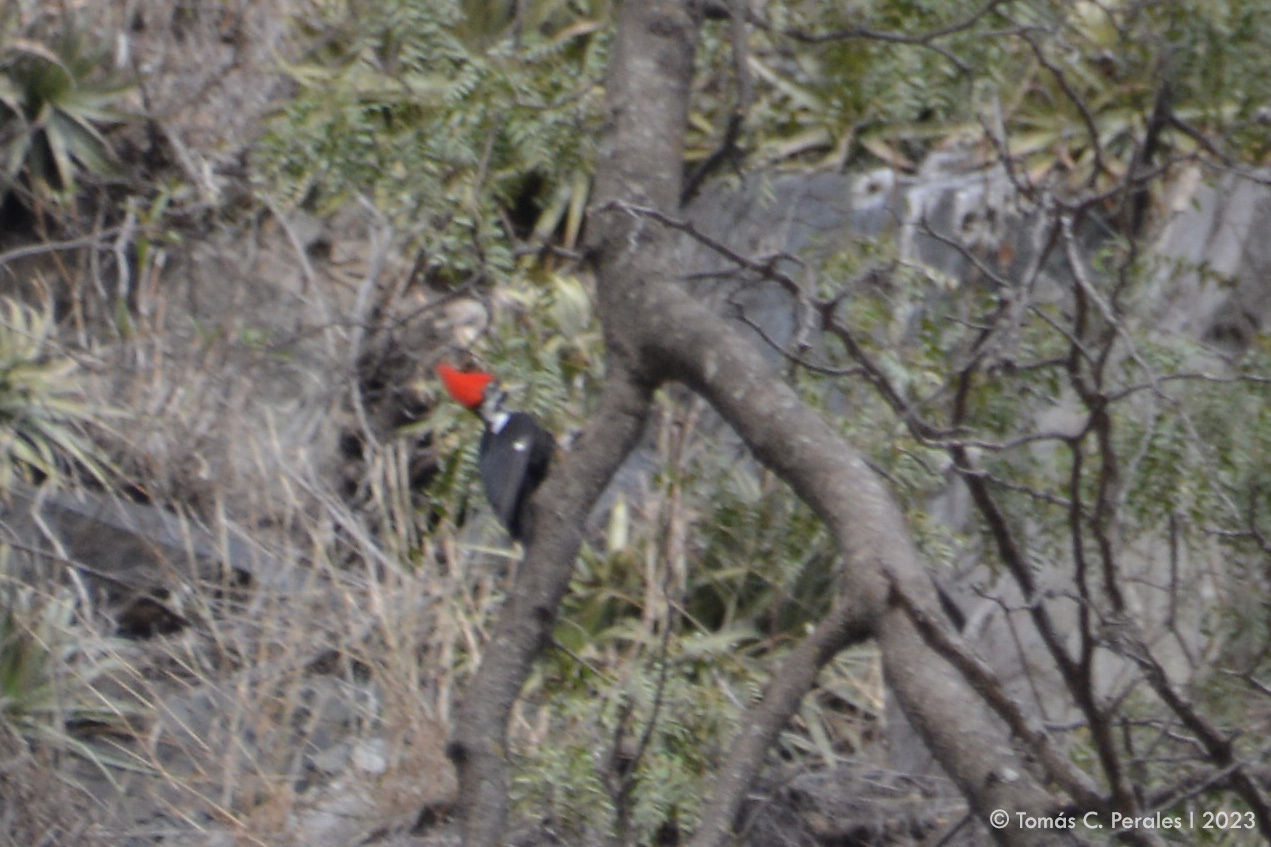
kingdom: Animalia
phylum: Chordata
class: Aves
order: Piciformes
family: Picidae
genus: Dryocopus
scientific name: Dryocopus schulzii
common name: Black-bodied woodpecker
